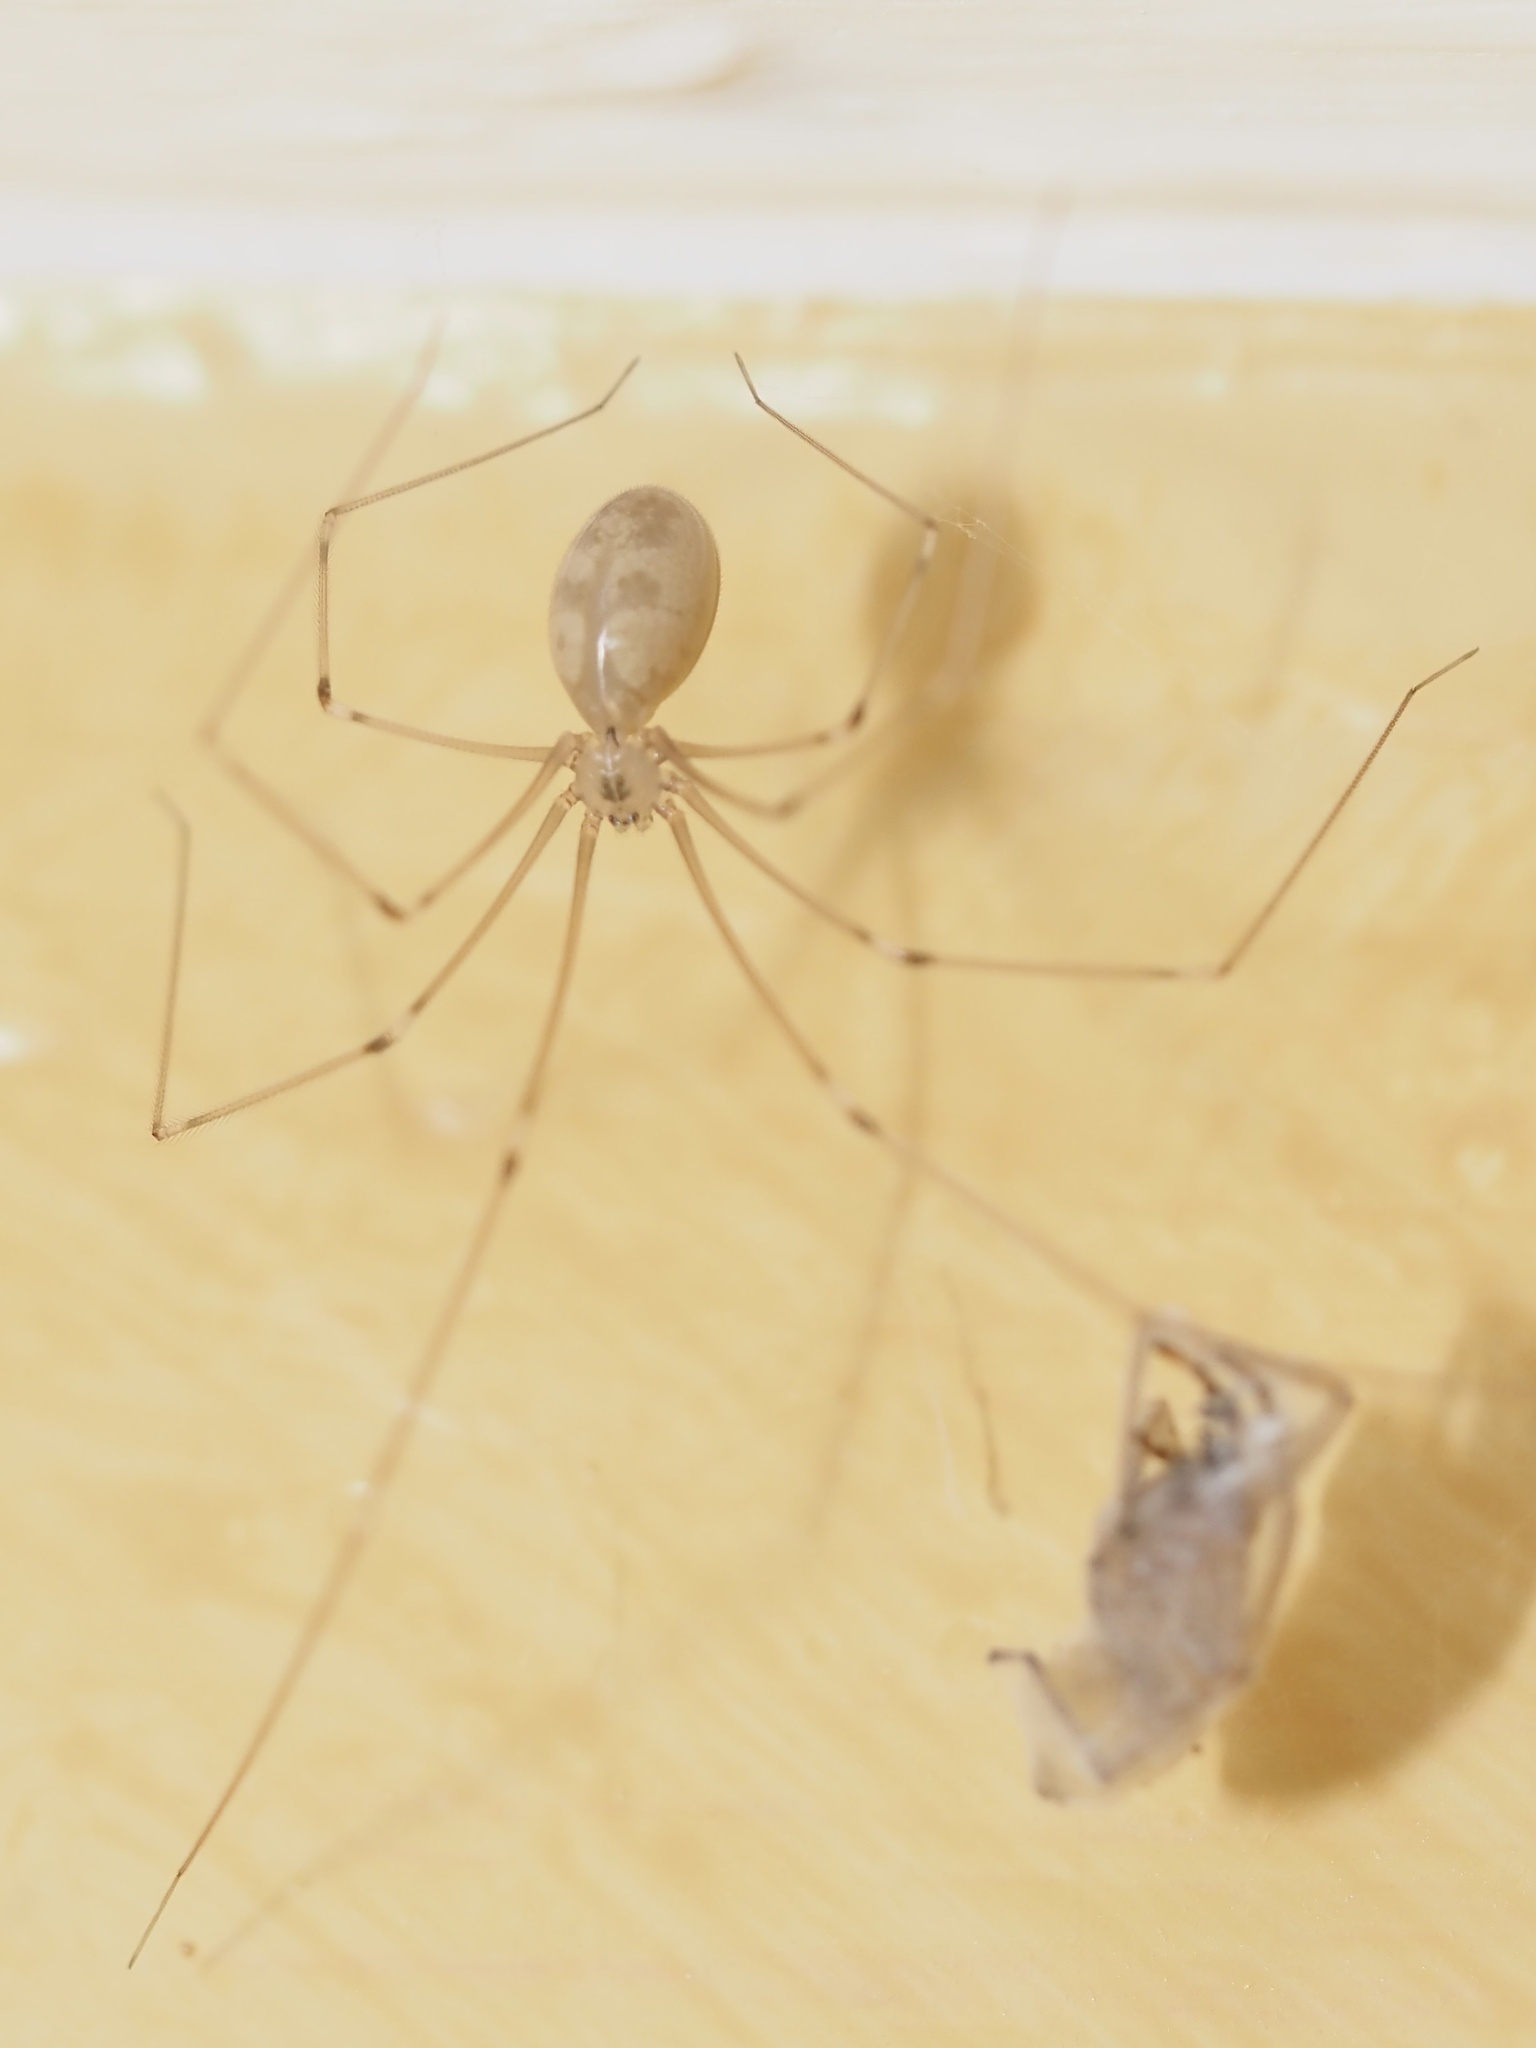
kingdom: Animalia
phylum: Arthropoda
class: Arachnida
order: Araneae
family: Pholcidae
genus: Pholcus
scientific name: Pholcus phalangioides
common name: Longbodied cellar spider
